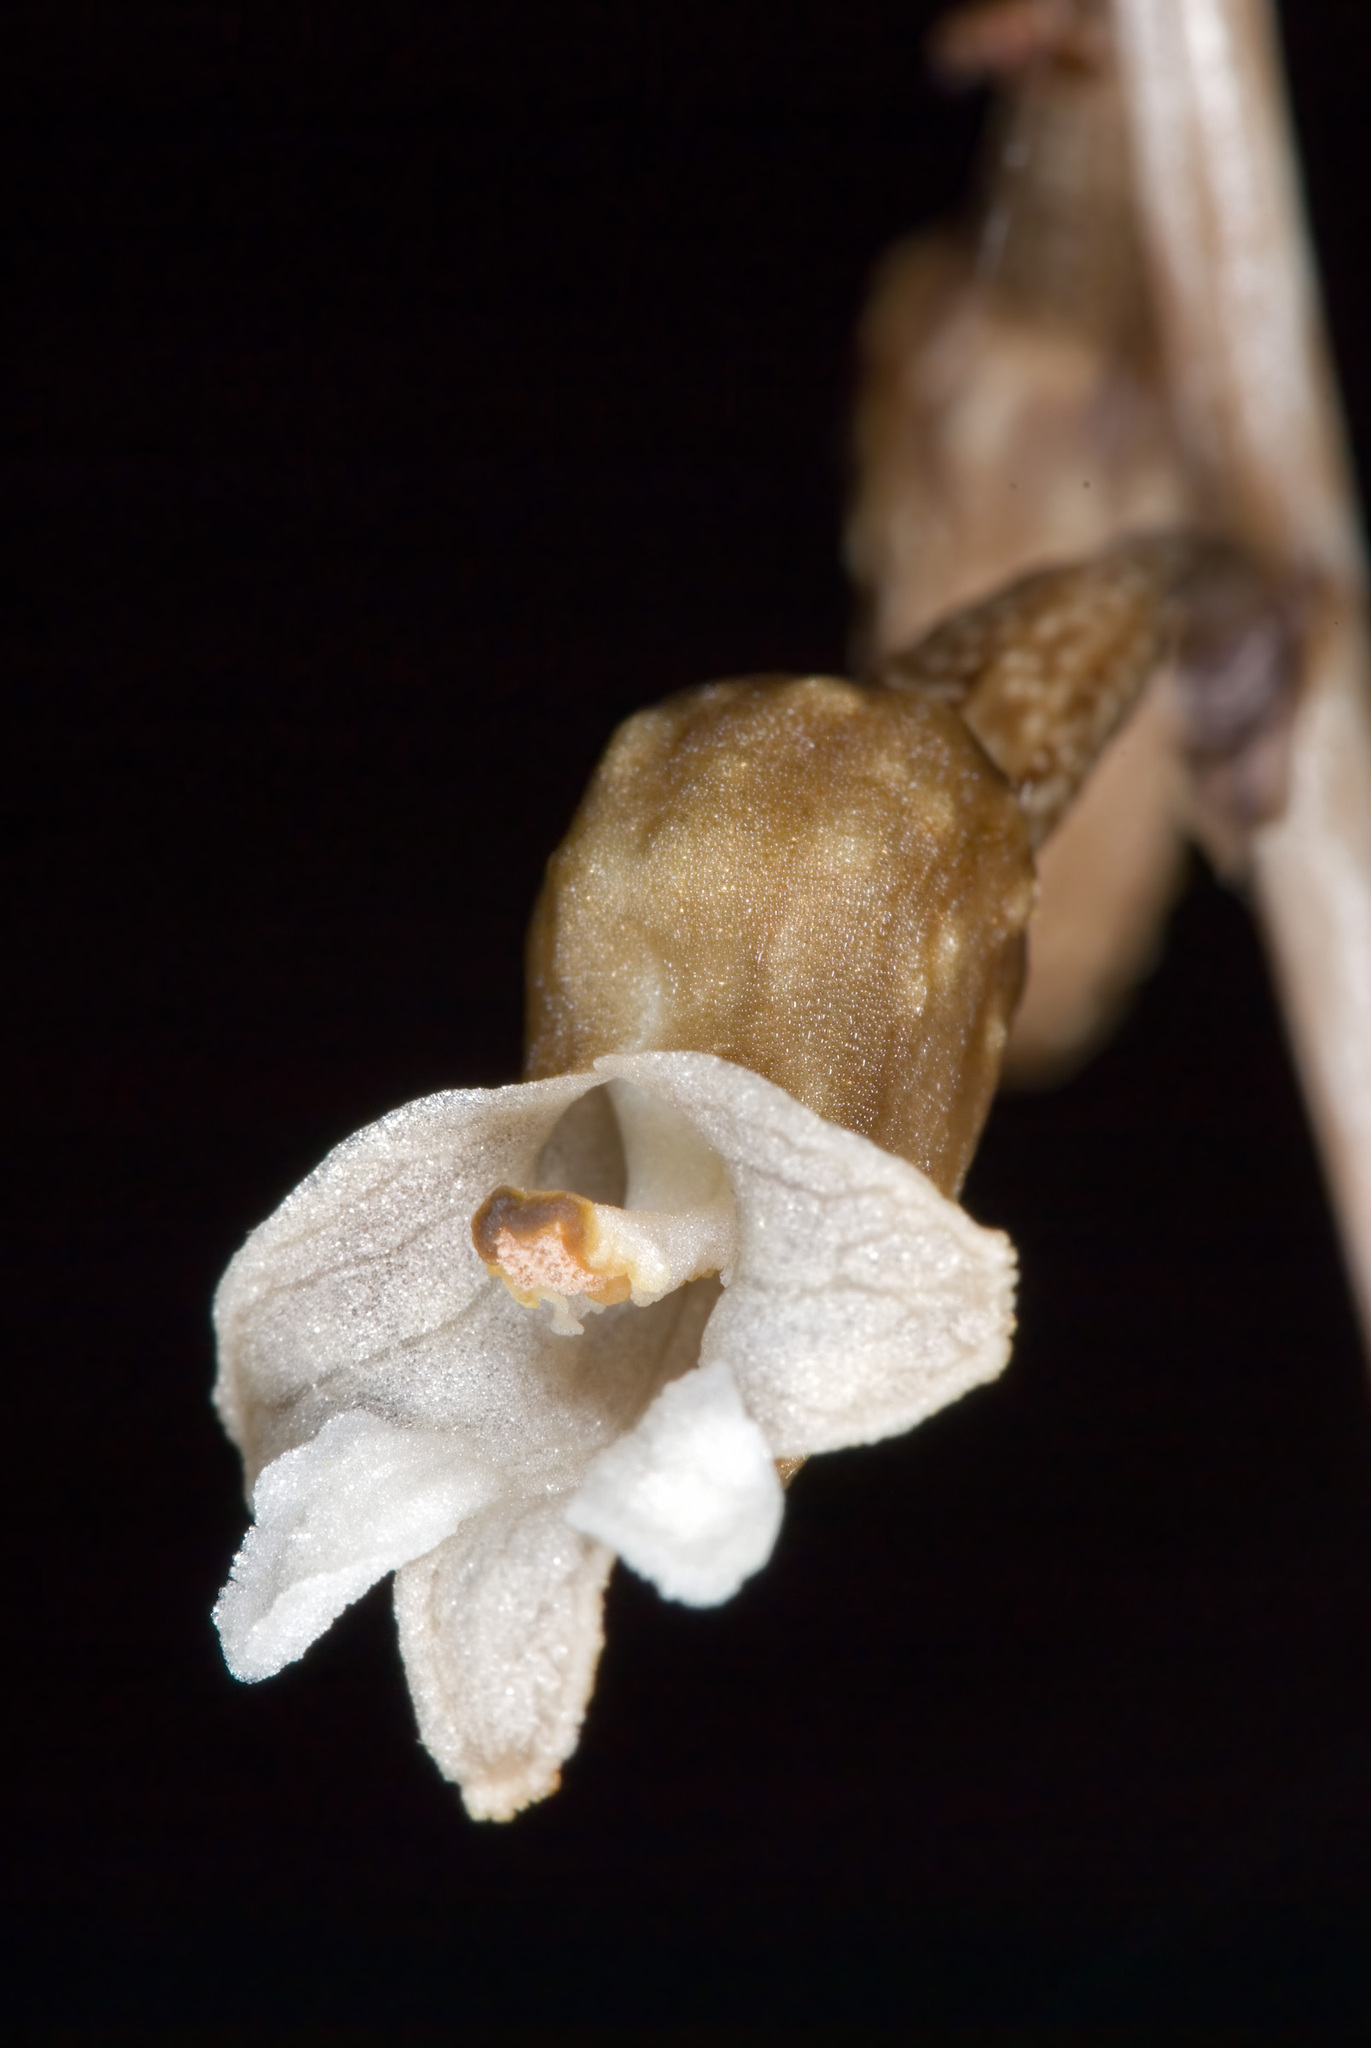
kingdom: Plantae
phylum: Tracheophyta
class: Liliopsida
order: Asparagales
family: Orchidaceae
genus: Gastrodia
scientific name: Gastrodia cunninghamii
